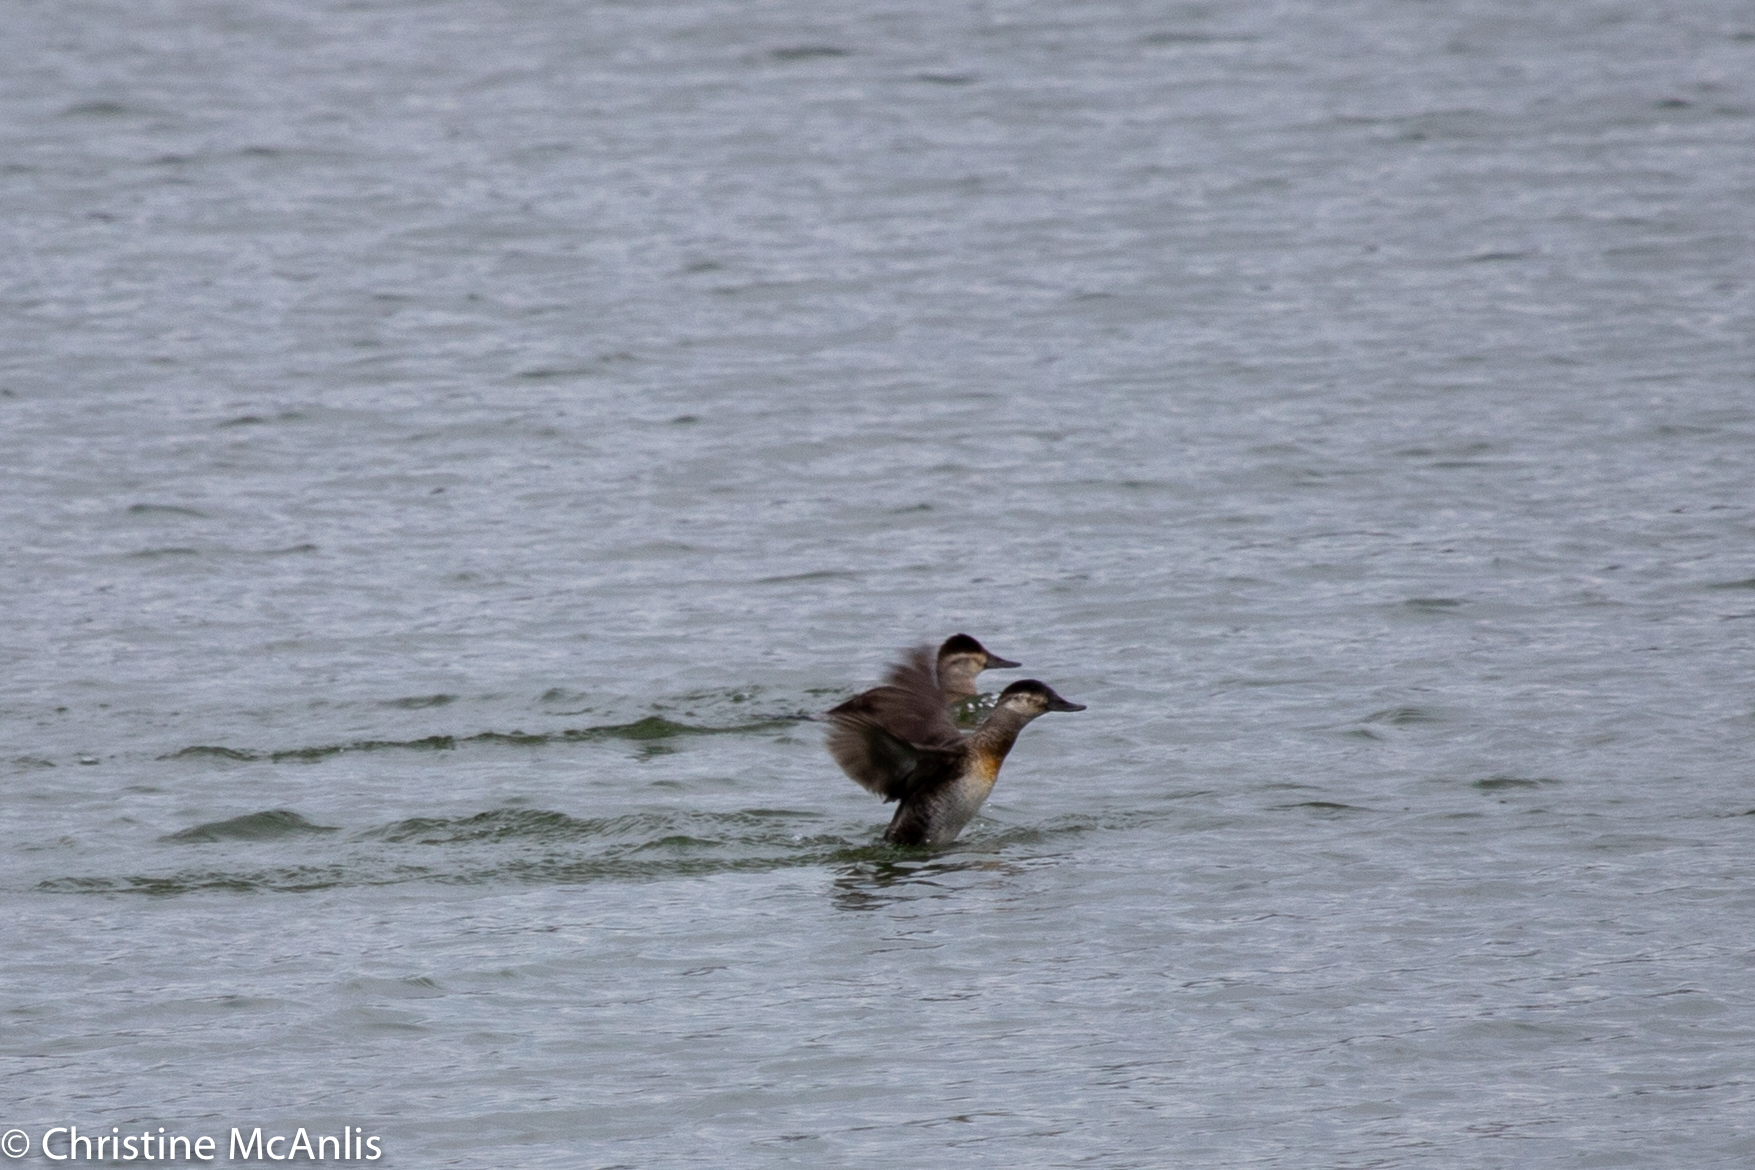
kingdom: Animalia
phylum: Chordata
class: Aves
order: Anseriformes
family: Anatidae
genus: Oxyura
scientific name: Oxyura jamaicensis
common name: Ruddy duck
